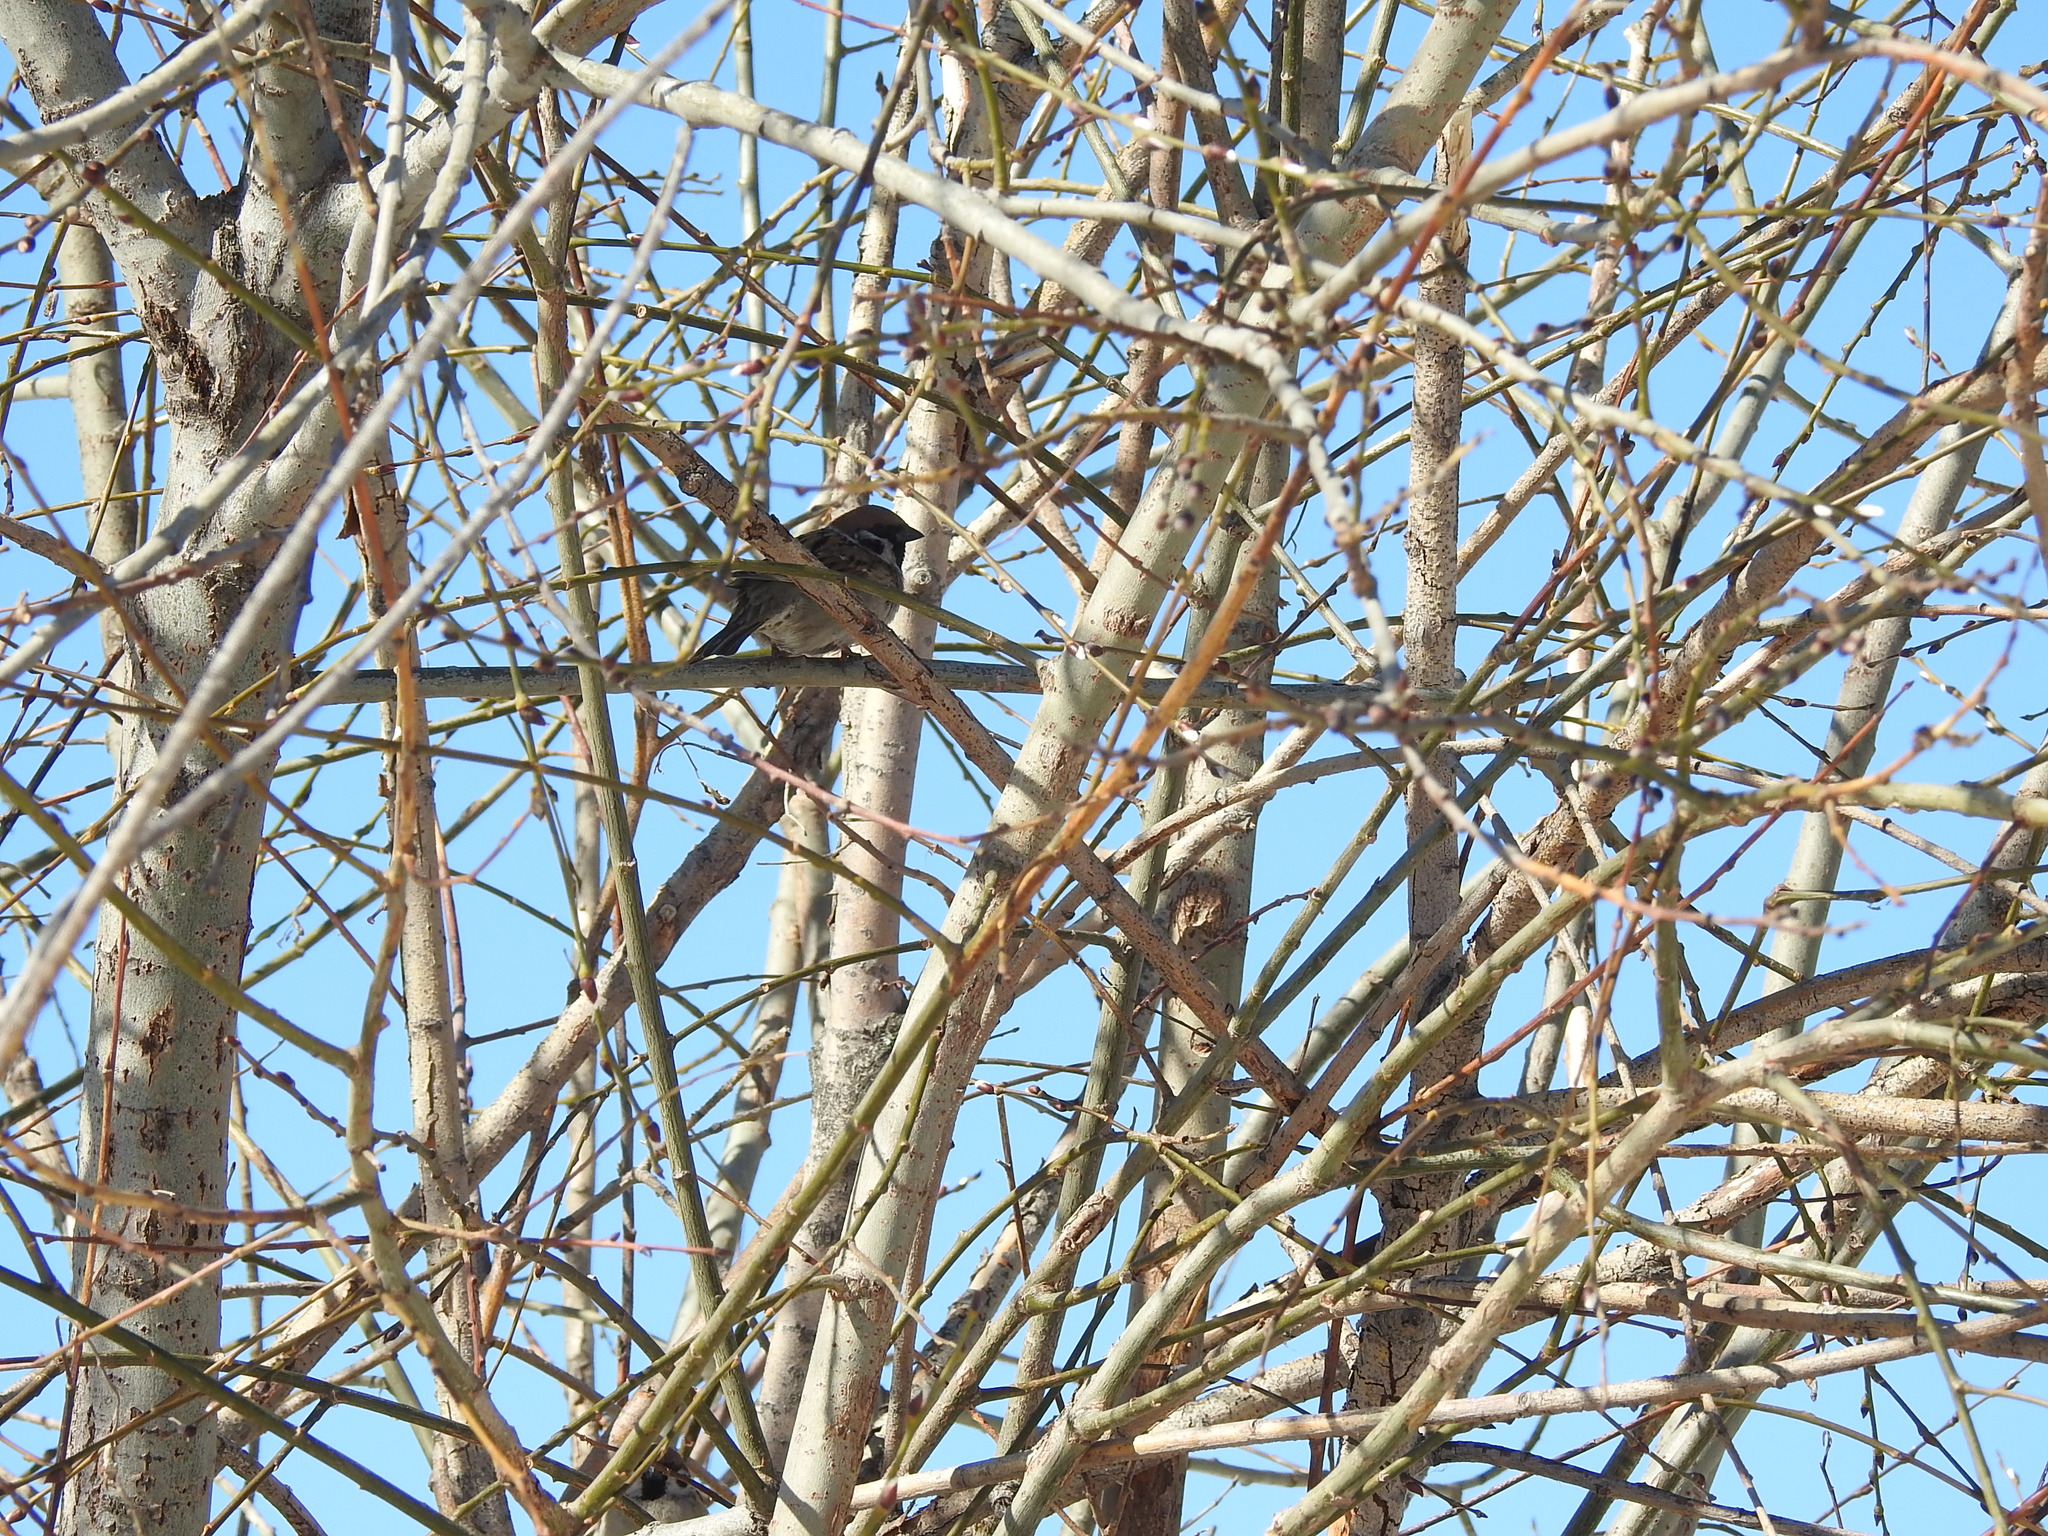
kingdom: Animalia
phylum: Chordata
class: Aves
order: Passeriformes
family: Passeridae
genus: Passer
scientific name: Passer montanus
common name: Eurasian tree sparrow
